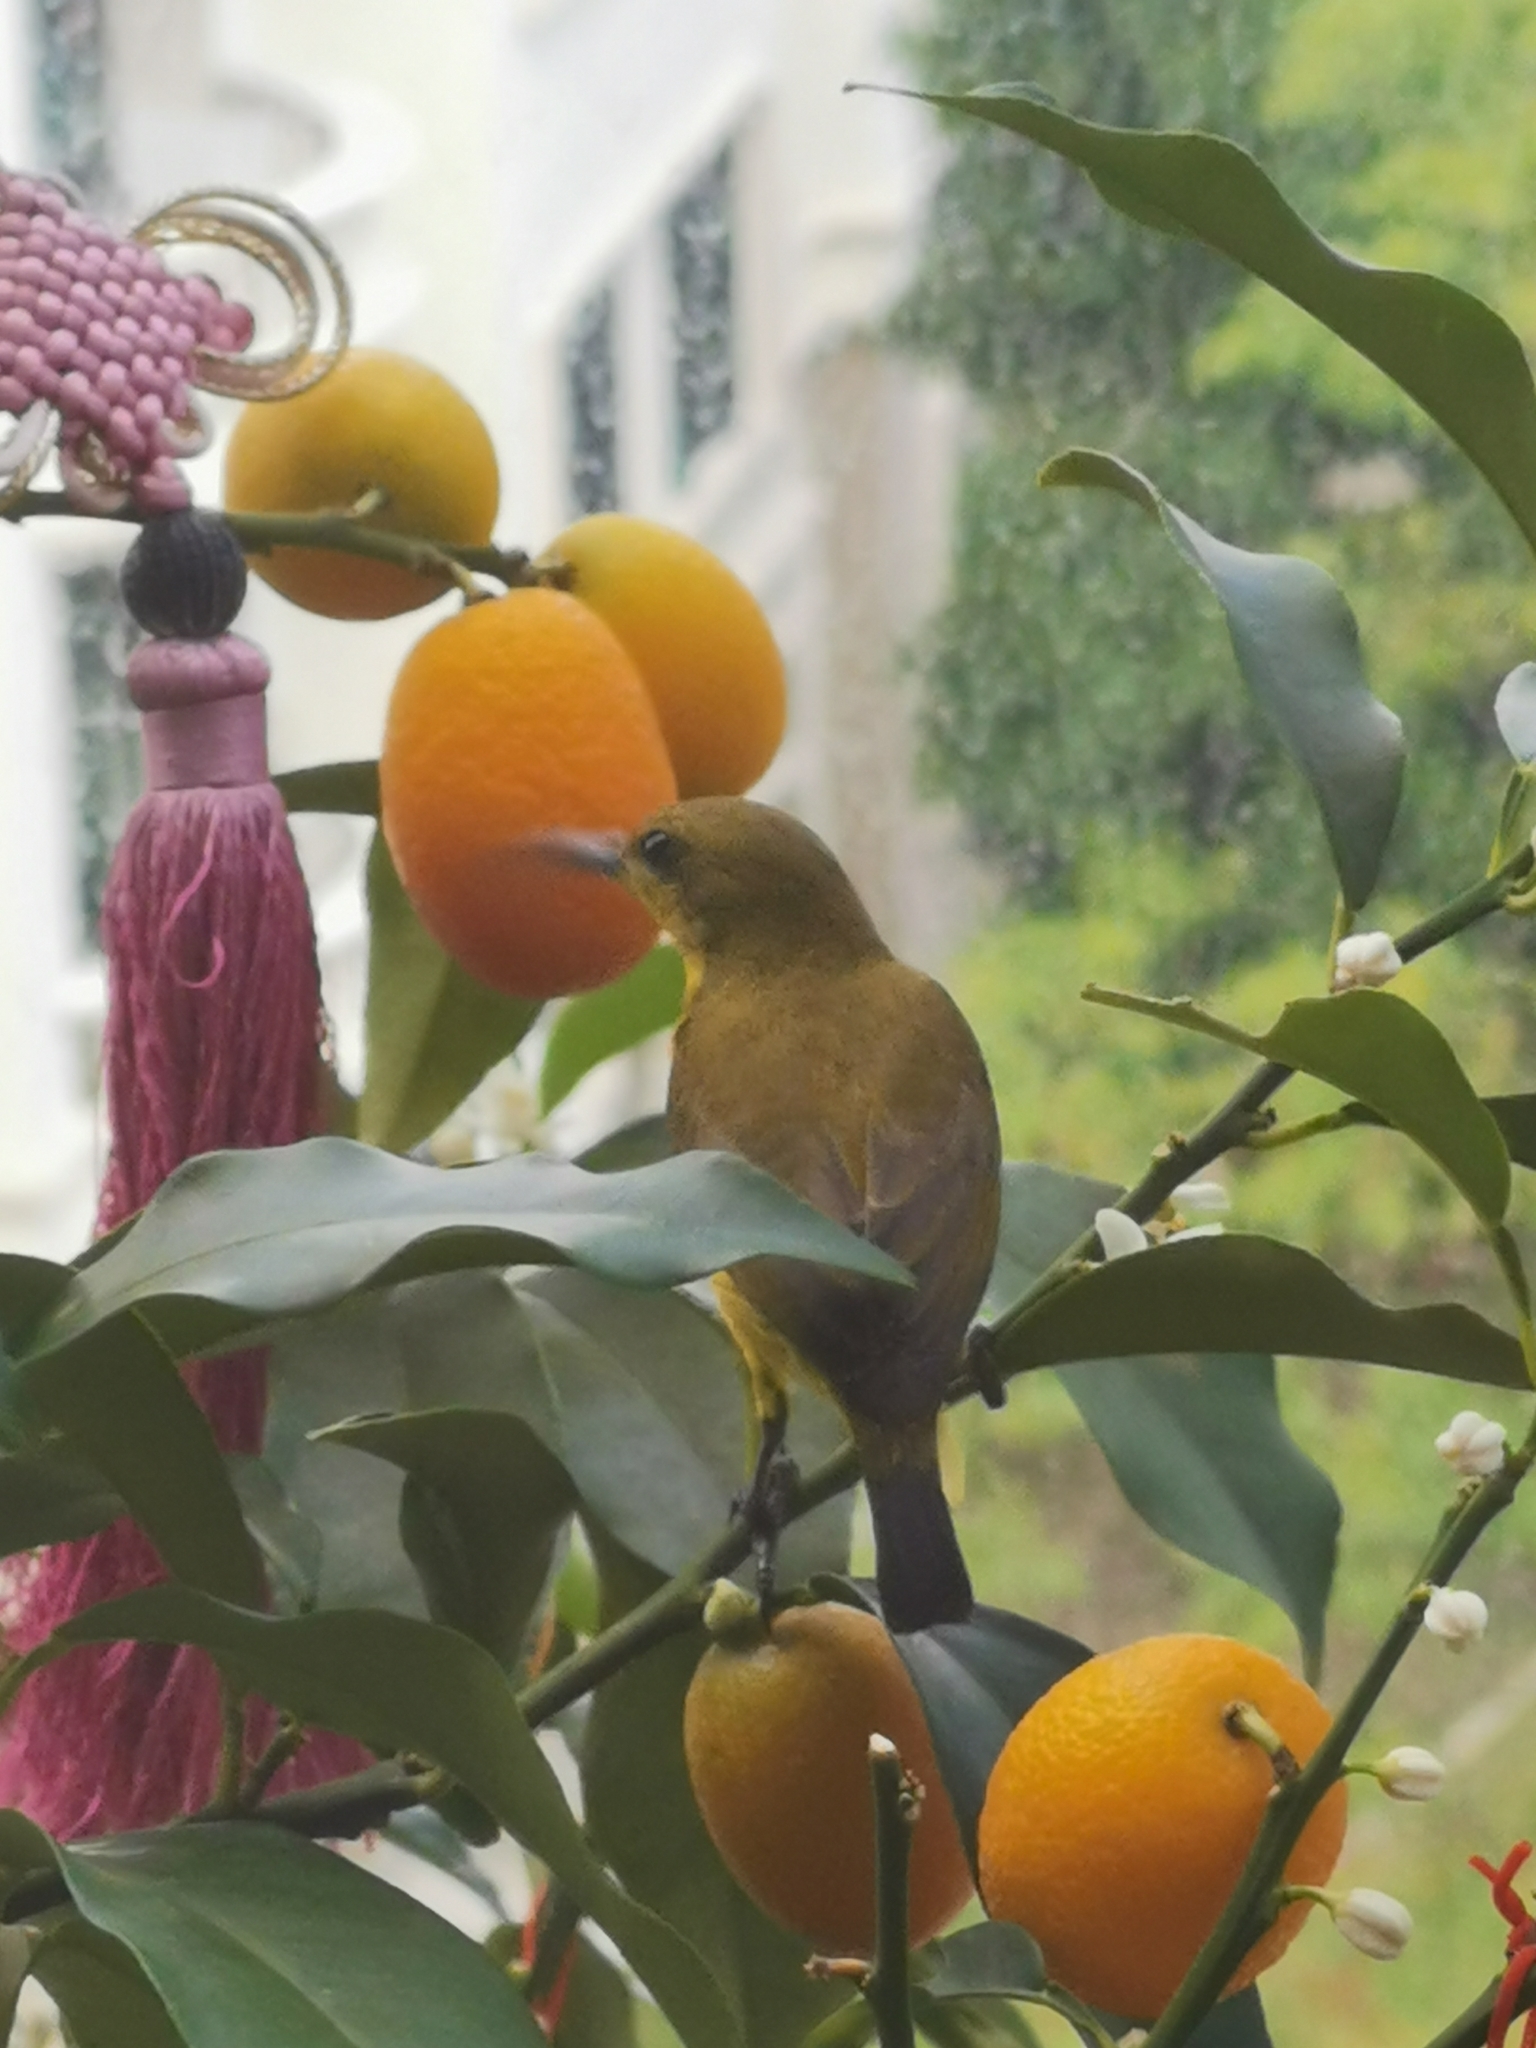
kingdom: Animalia
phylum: Chordata
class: Aves
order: Passeriformes
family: Nectariniidae
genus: Cinnyris
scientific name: Cinnyris
